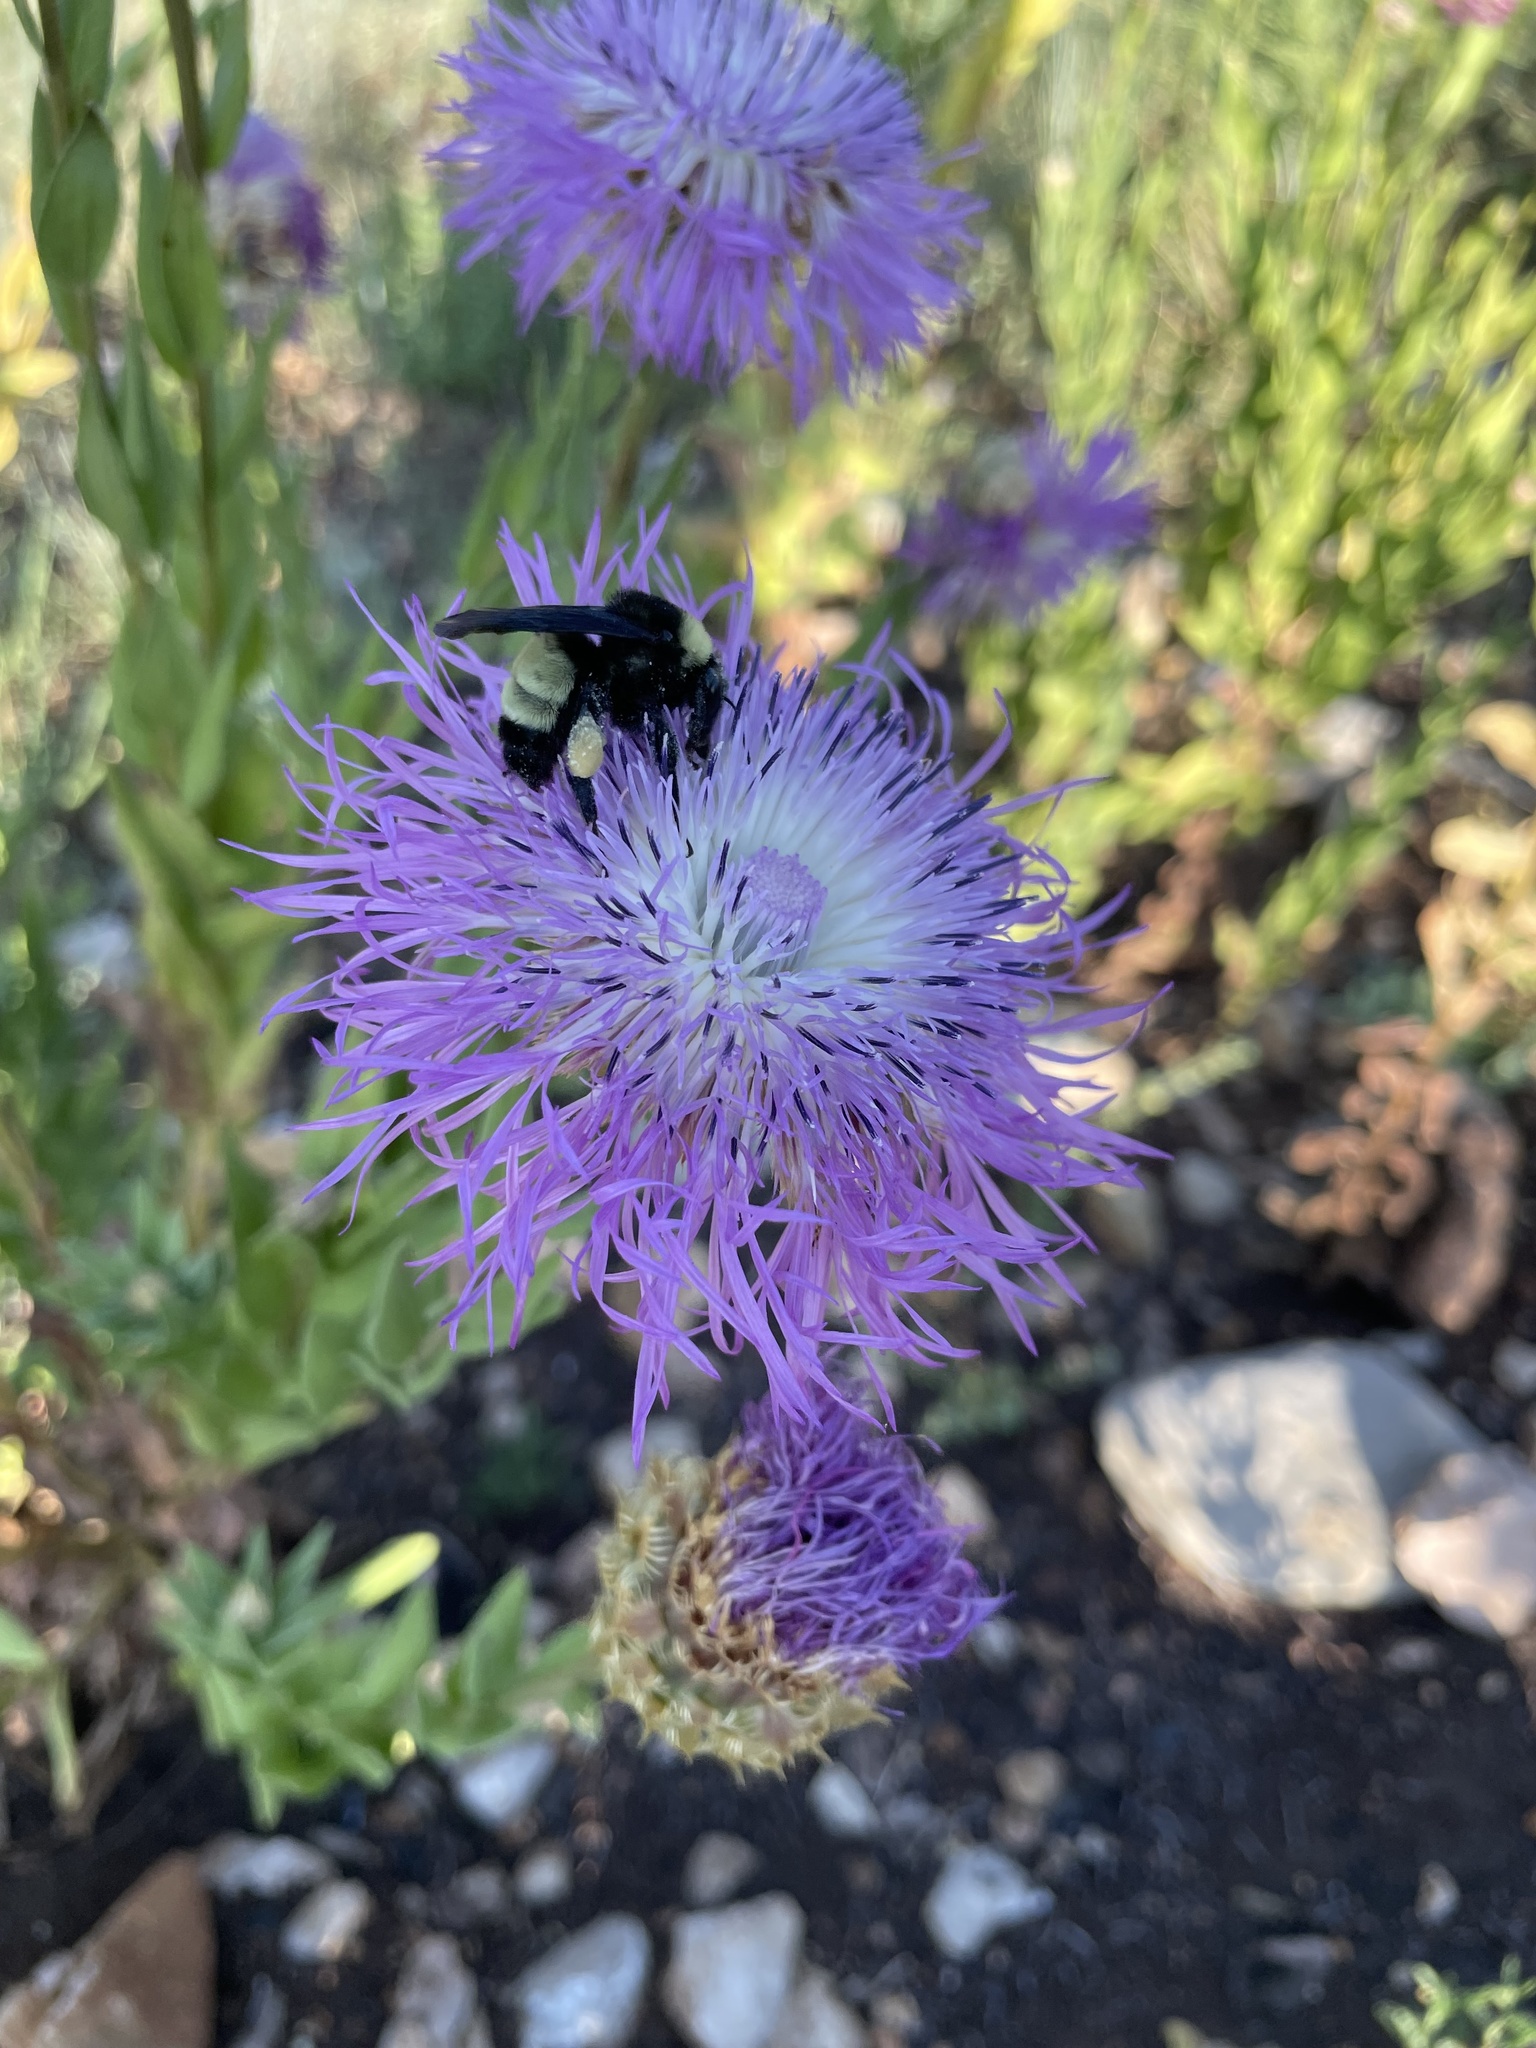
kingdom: Animalia
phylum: Arthropoda
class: Insecta
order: Hymenoptera
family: Apidae
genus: Bombus
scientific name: Bombus pensylvanicus
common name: Bumble bee
